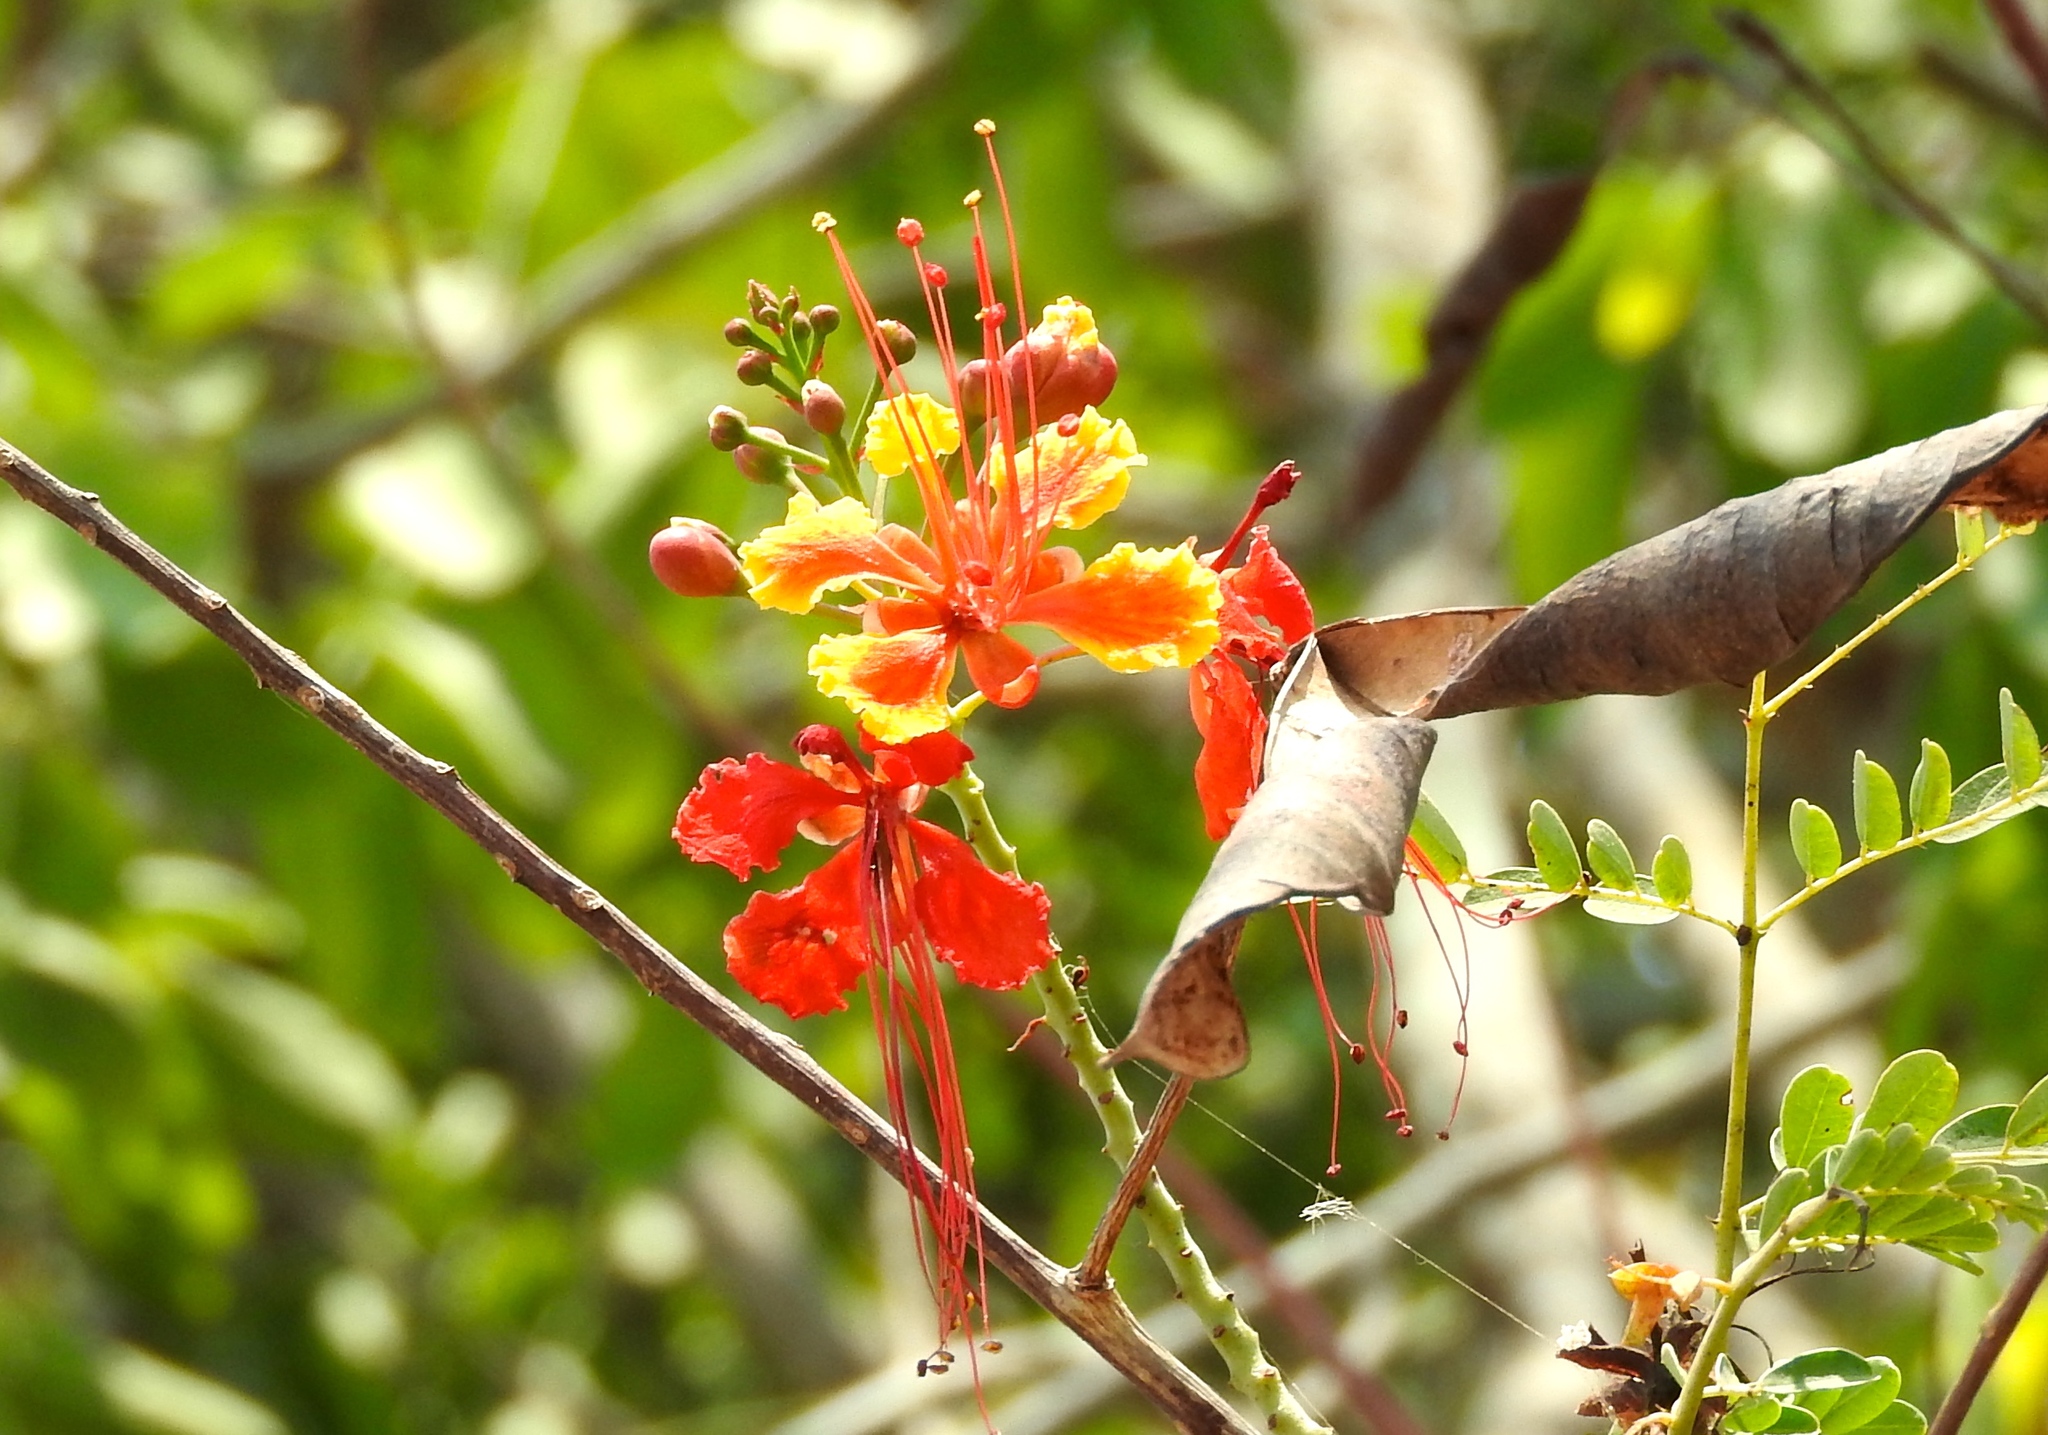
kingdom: Plantae
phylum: Tracheophyta
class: Magnoliopsida
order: Fabales
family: Fabaceae
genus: Caesalpinia
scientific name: Caesalpinia pulcherrima
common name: Pride-of-barbados
